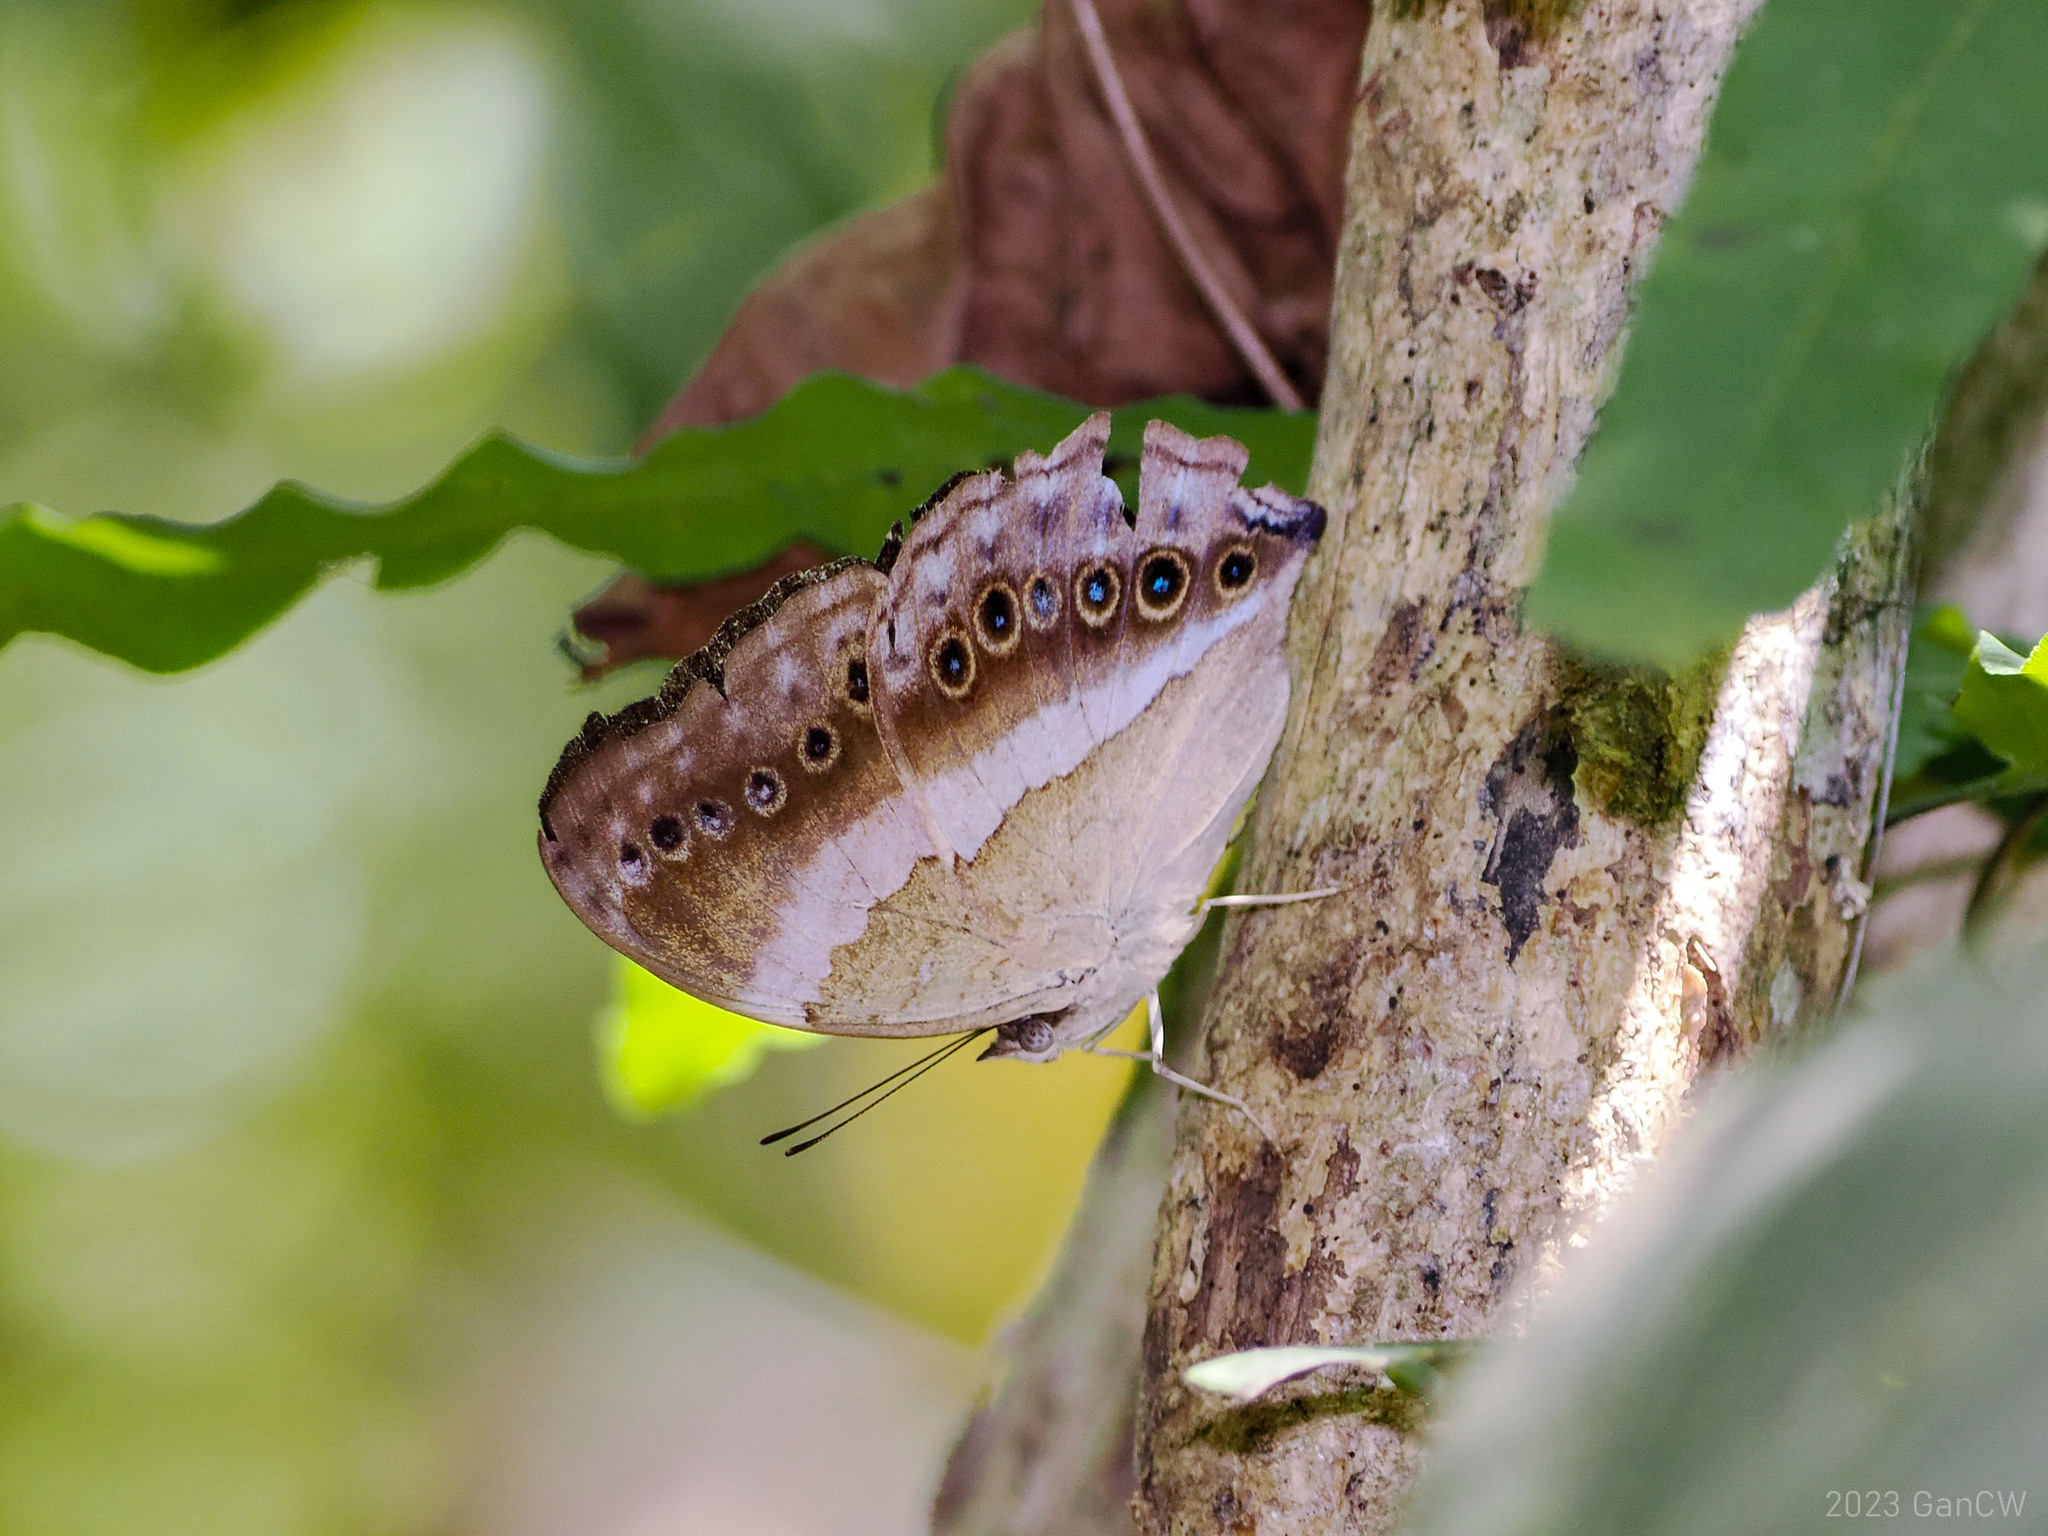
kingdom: Animalia
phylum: Arthropoda
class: Insecta
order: Lepidoptera
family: Nymphalidae
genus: Yoma
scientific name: Yoma algina
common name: New guinea lurcher
